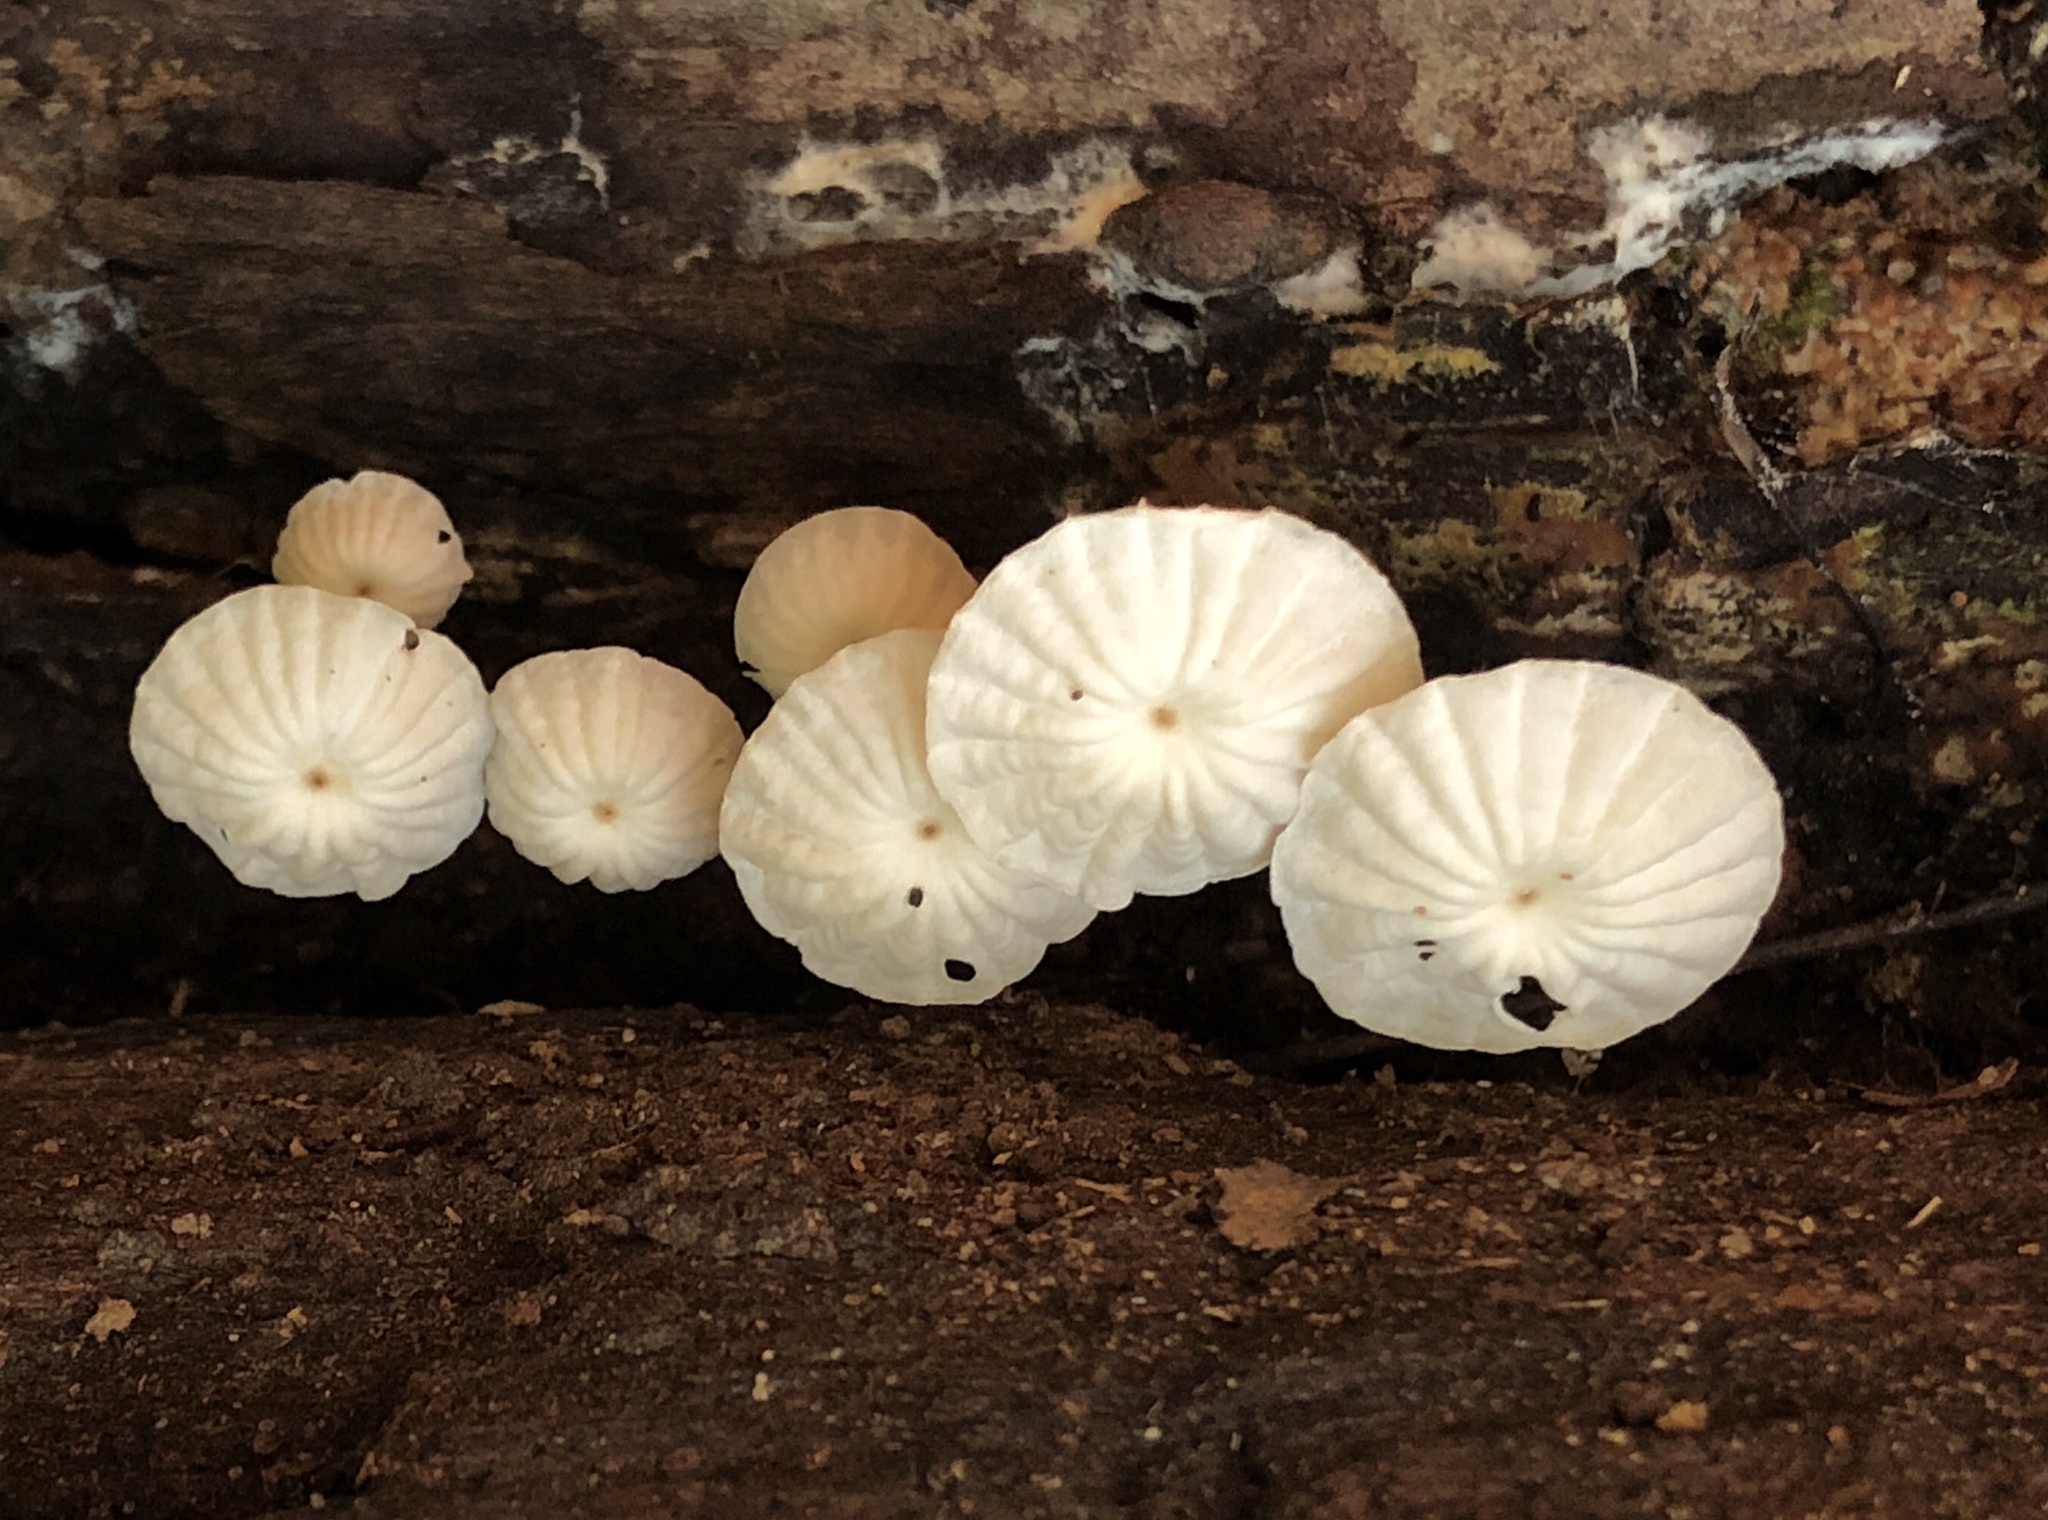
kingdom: Fungi
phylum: Basidiomycota
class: Agaricomycetes
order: Agaricales
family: Marasmiaceae
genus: Marasmius
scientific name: Marasmius rotula
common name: Collared parachute
